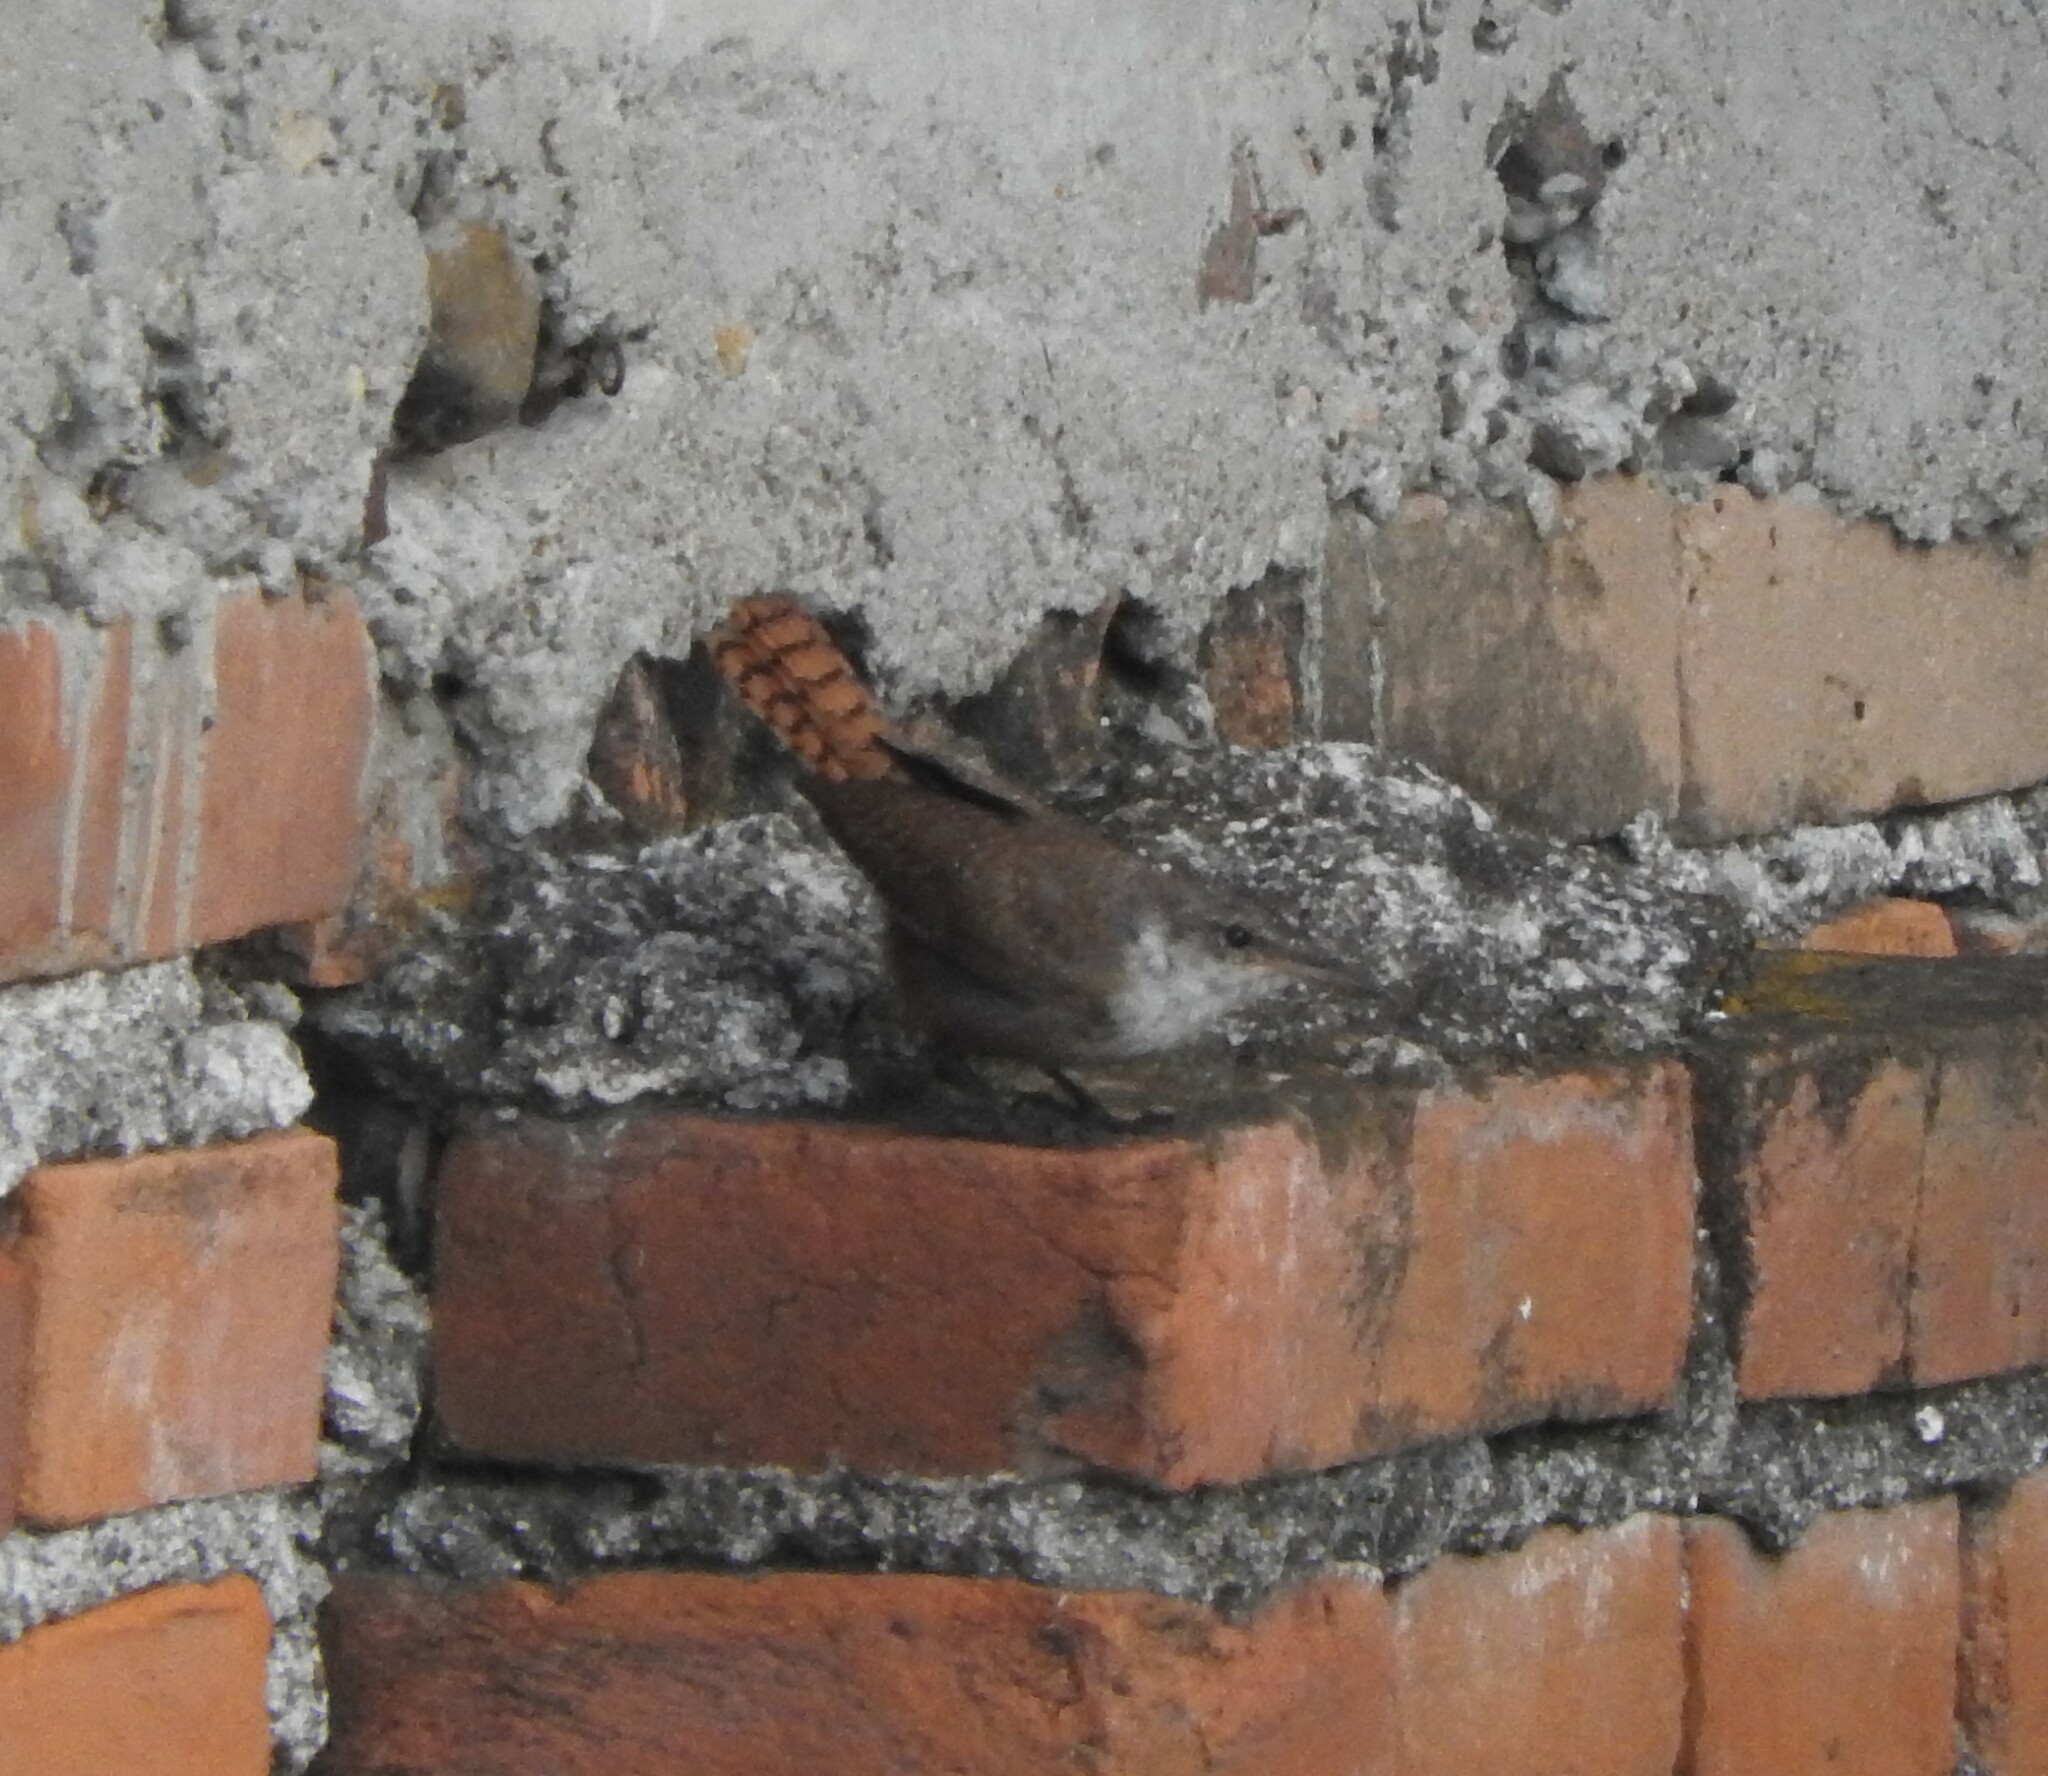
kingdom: Animalia
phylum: Chordata
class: Aves
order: Passeriformes
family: Troglodytidae
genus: Catherpes
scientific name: Catherpes mexicanus
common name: Canyon wren
